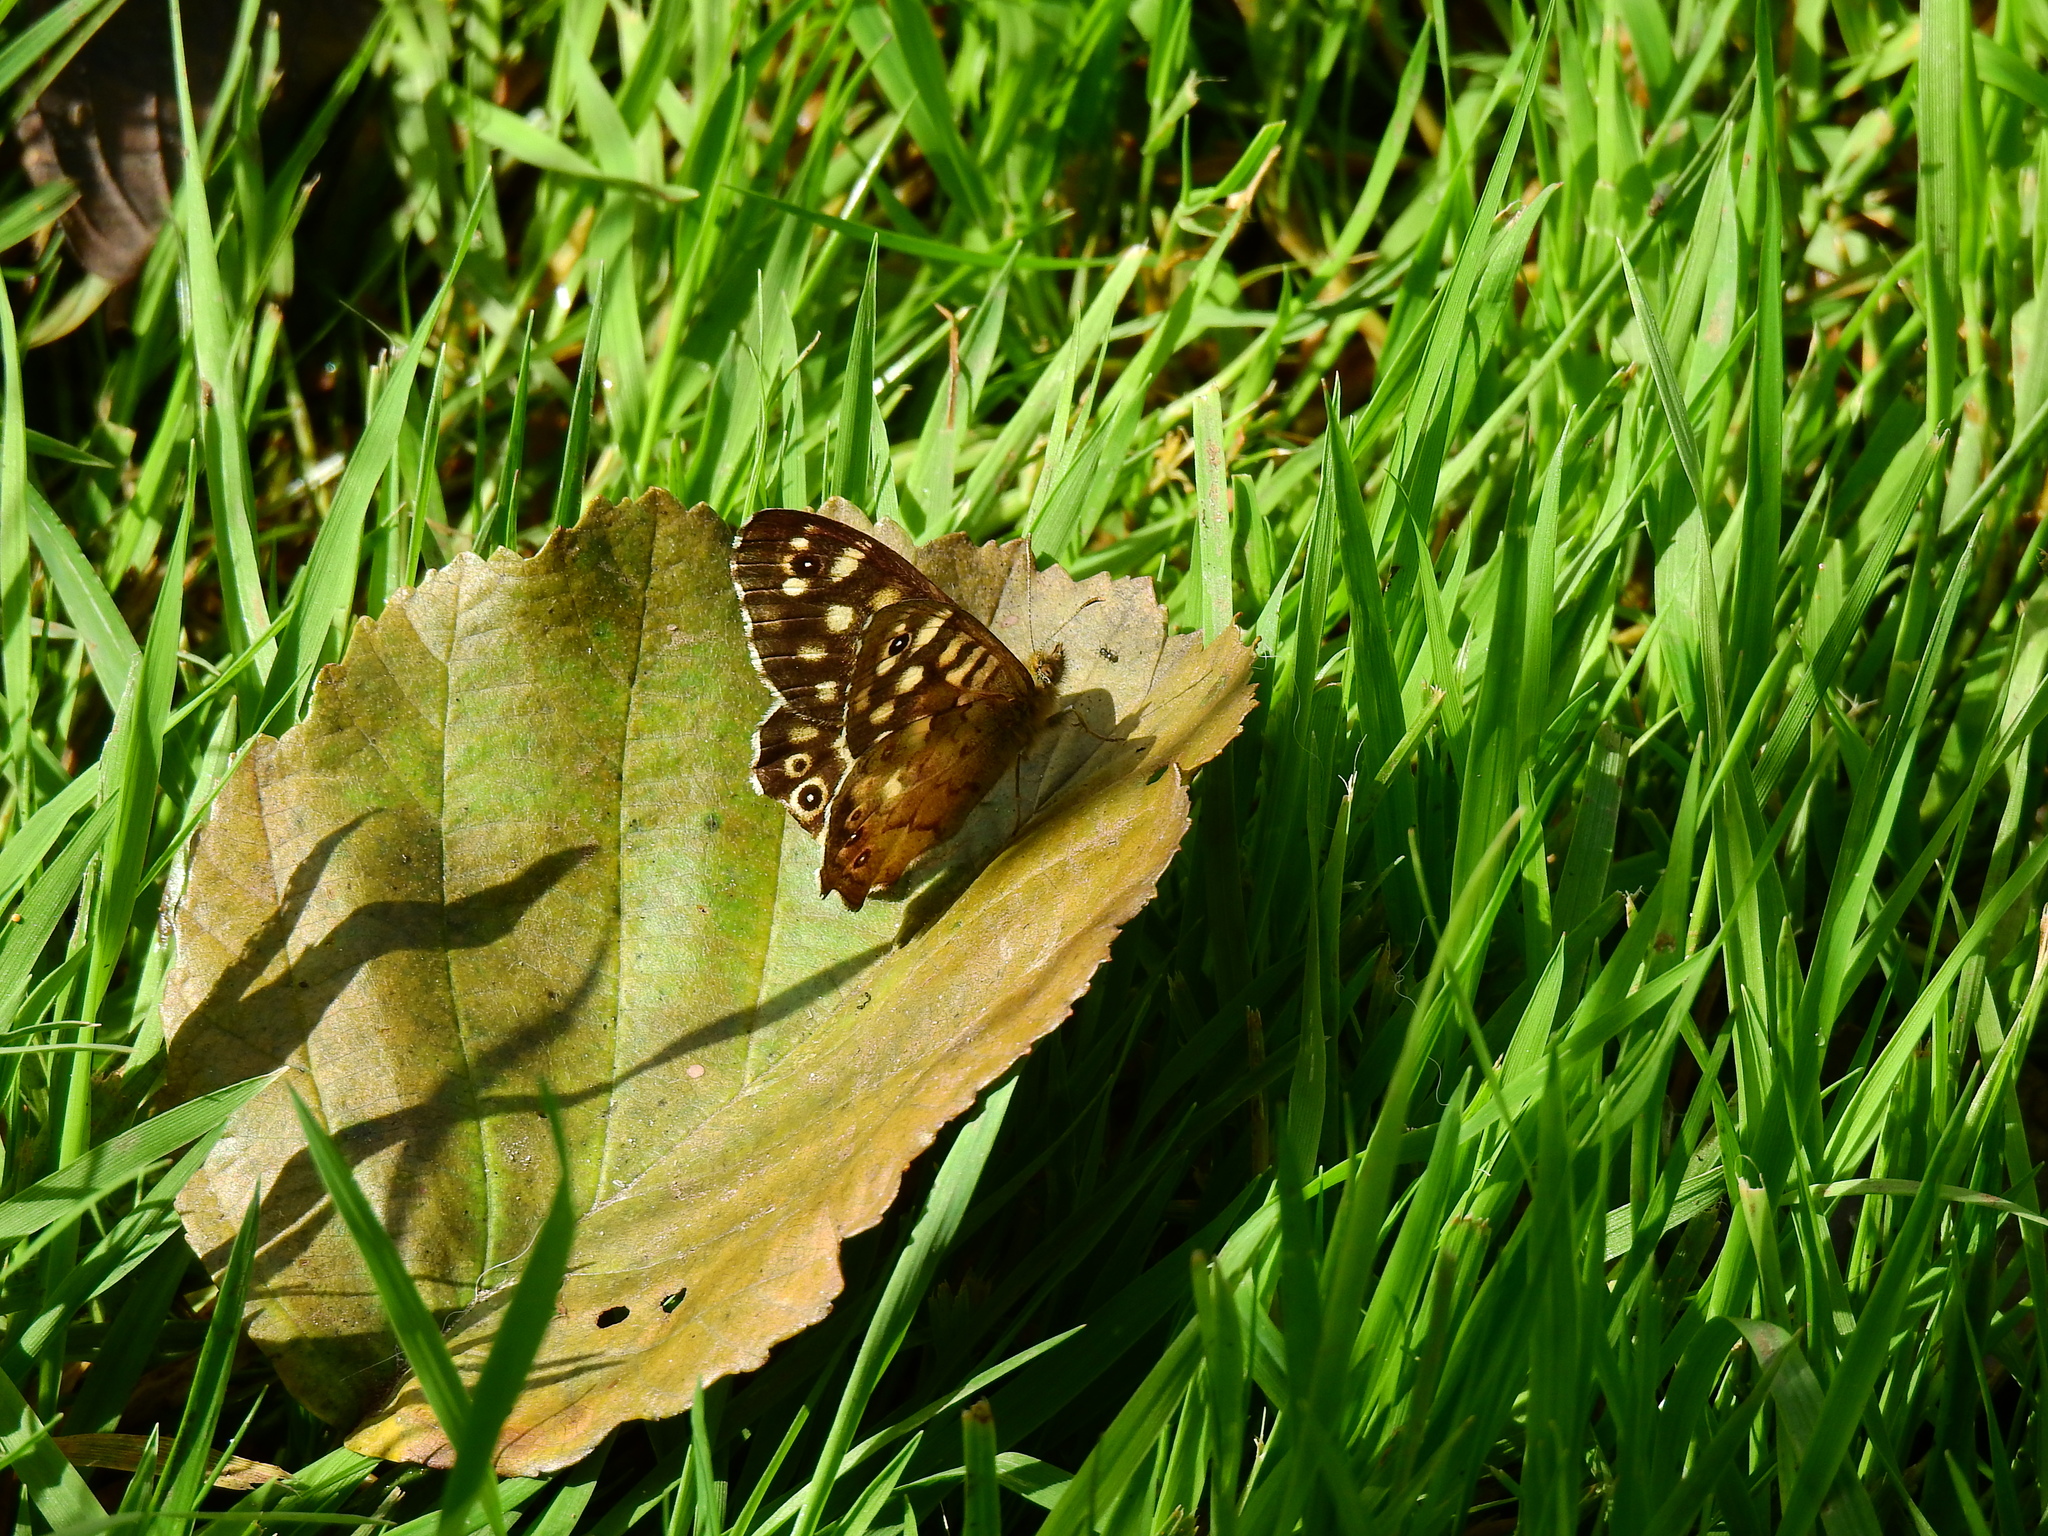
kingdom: Animalia
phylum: Arthropoda
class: Insecta
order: Lepidoptera
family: Nymphalidae
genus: Pararge
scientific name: Pararge aegeria
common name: Speckled wood
